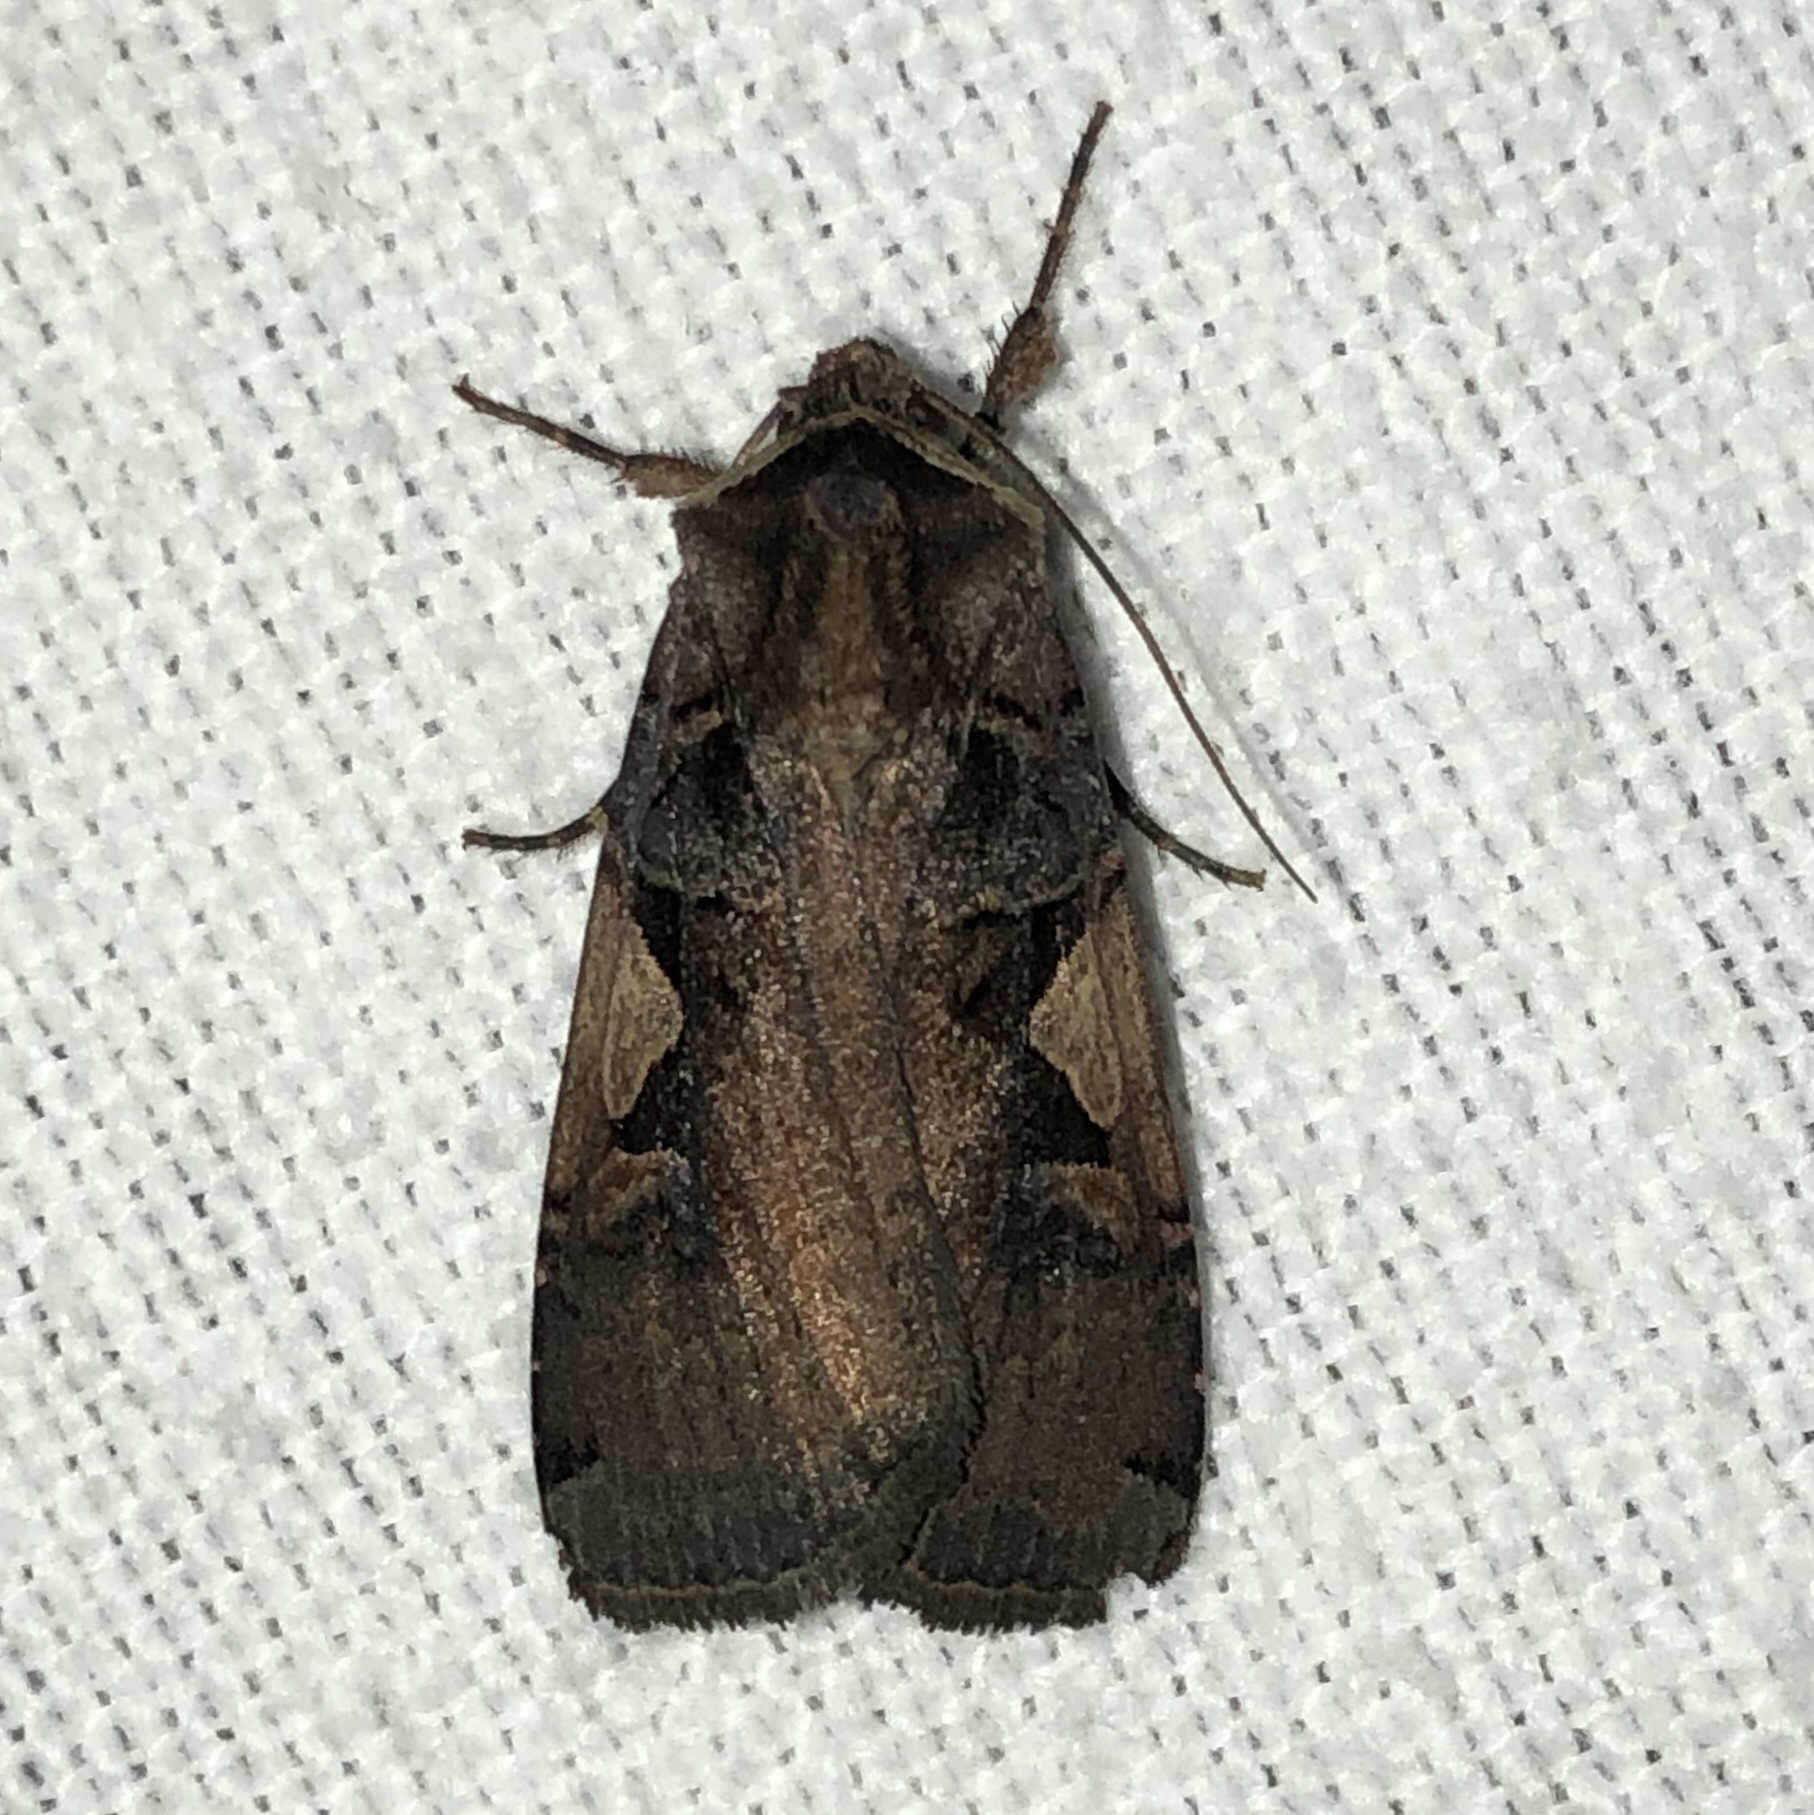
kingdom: Animalia
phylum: Arthropoda
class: Insecta
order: Lepidoptera
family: Noctuidae
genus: Xestia
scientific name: Xestia
